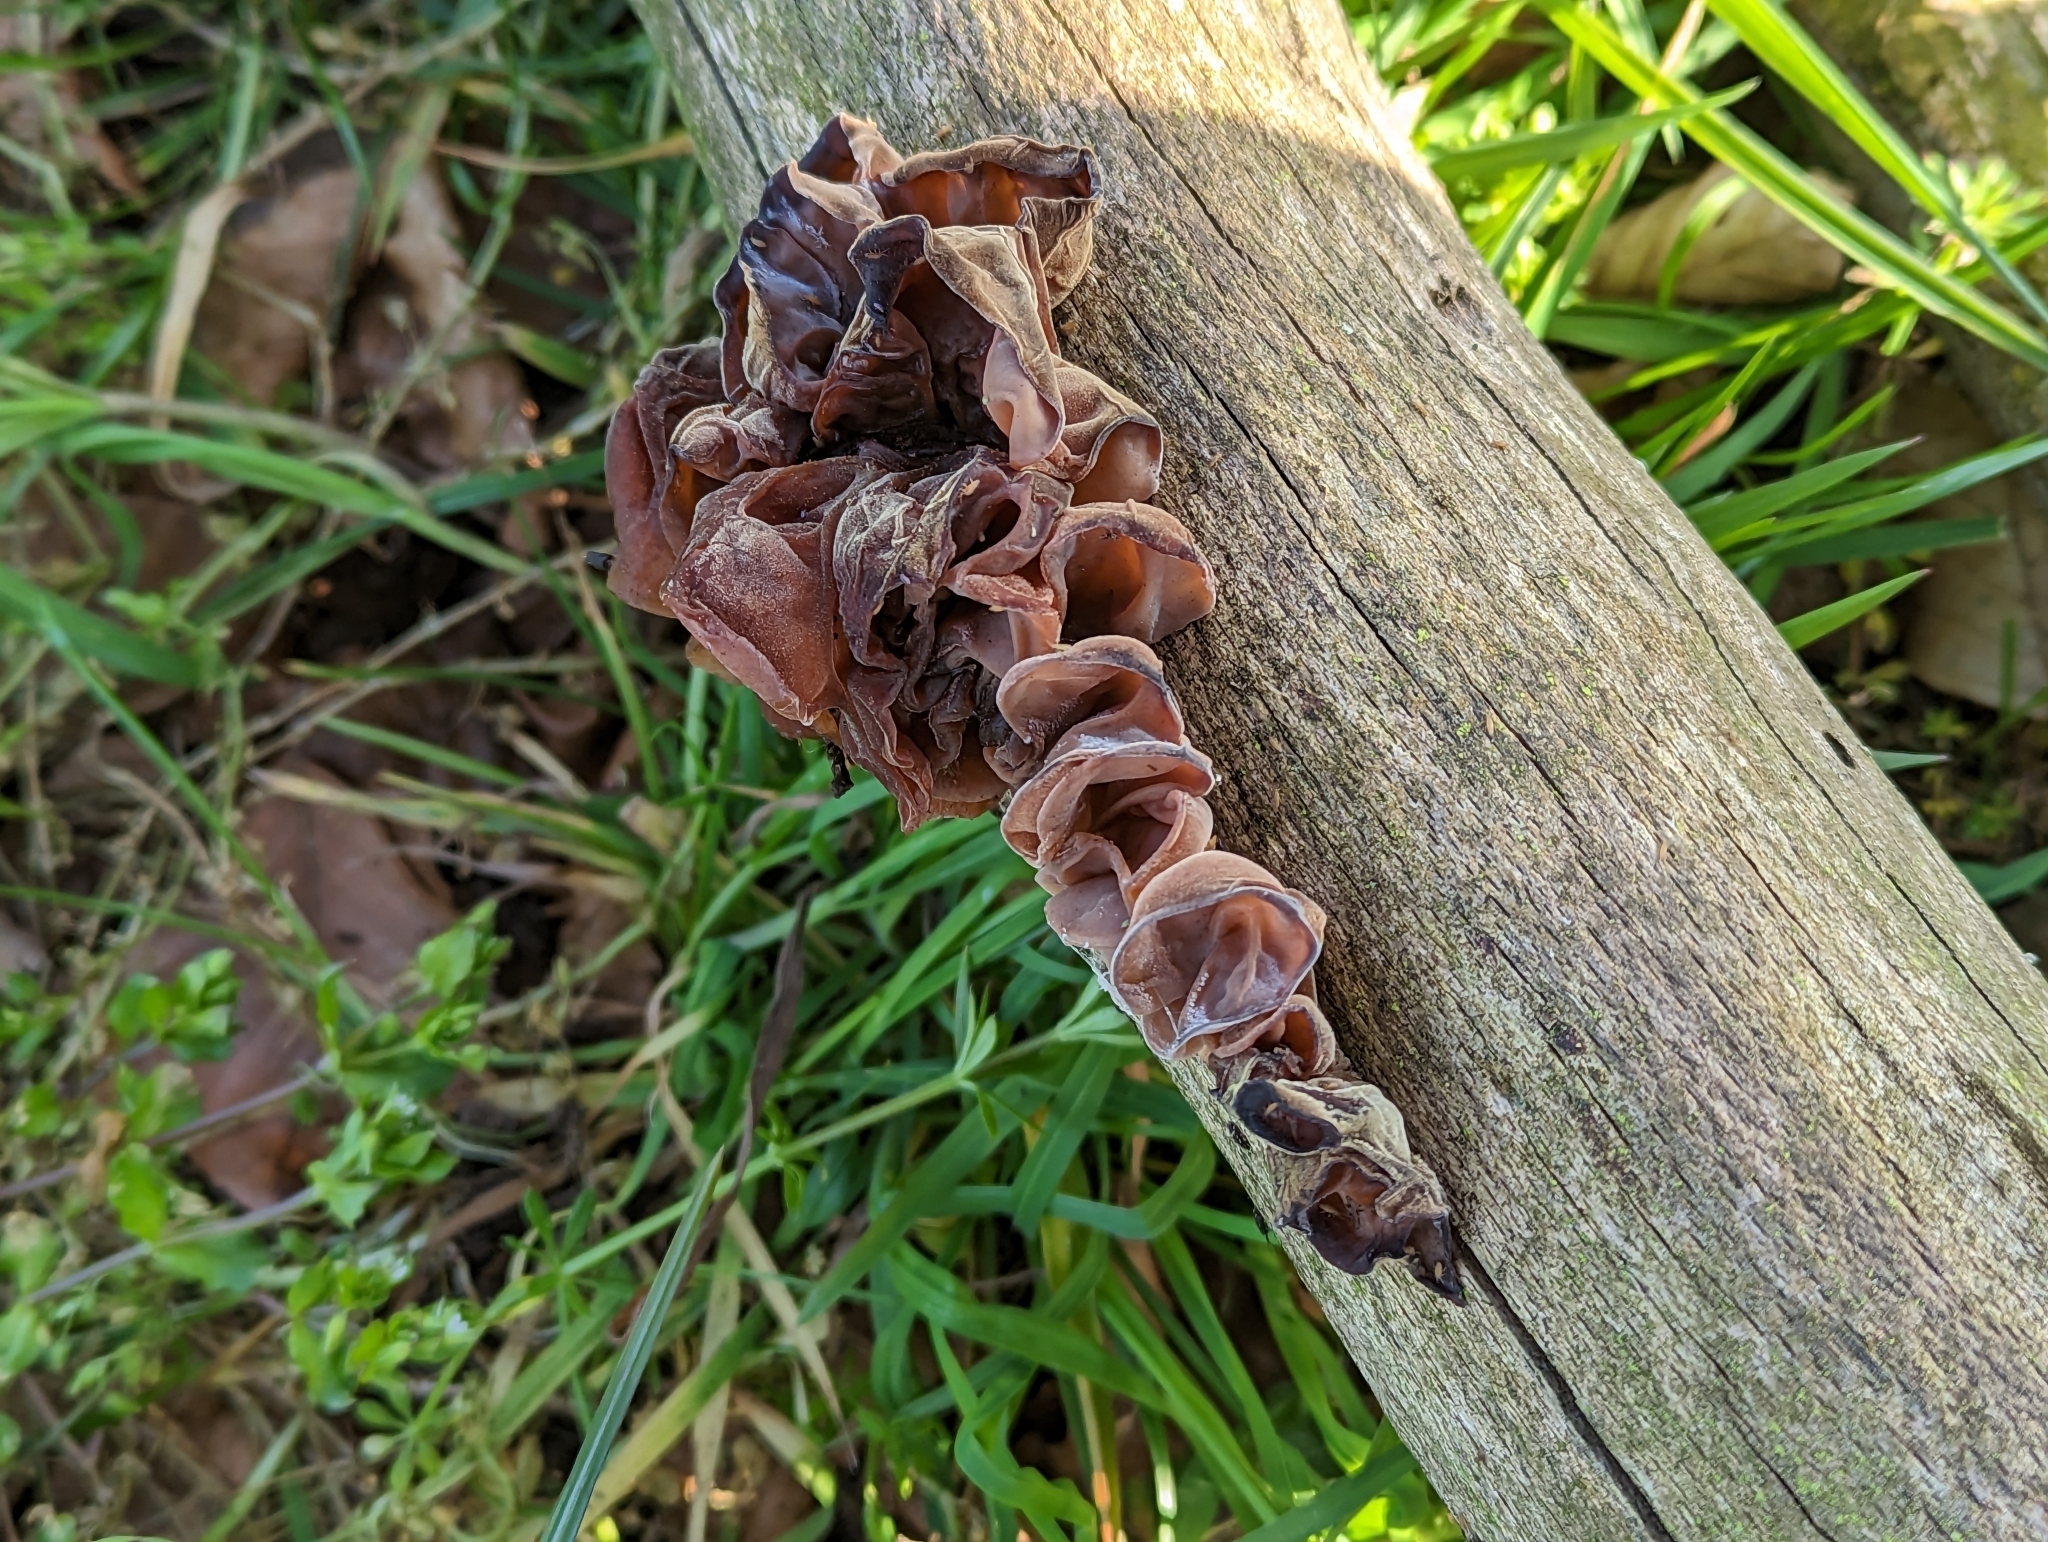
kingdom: Fungi
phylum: Basidiomycota
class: Agaricomycetes
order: Auriculariales
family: Auriculariaceae
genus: Auricularia
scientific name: Auricularia auricula-judae
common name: Jelly ear
